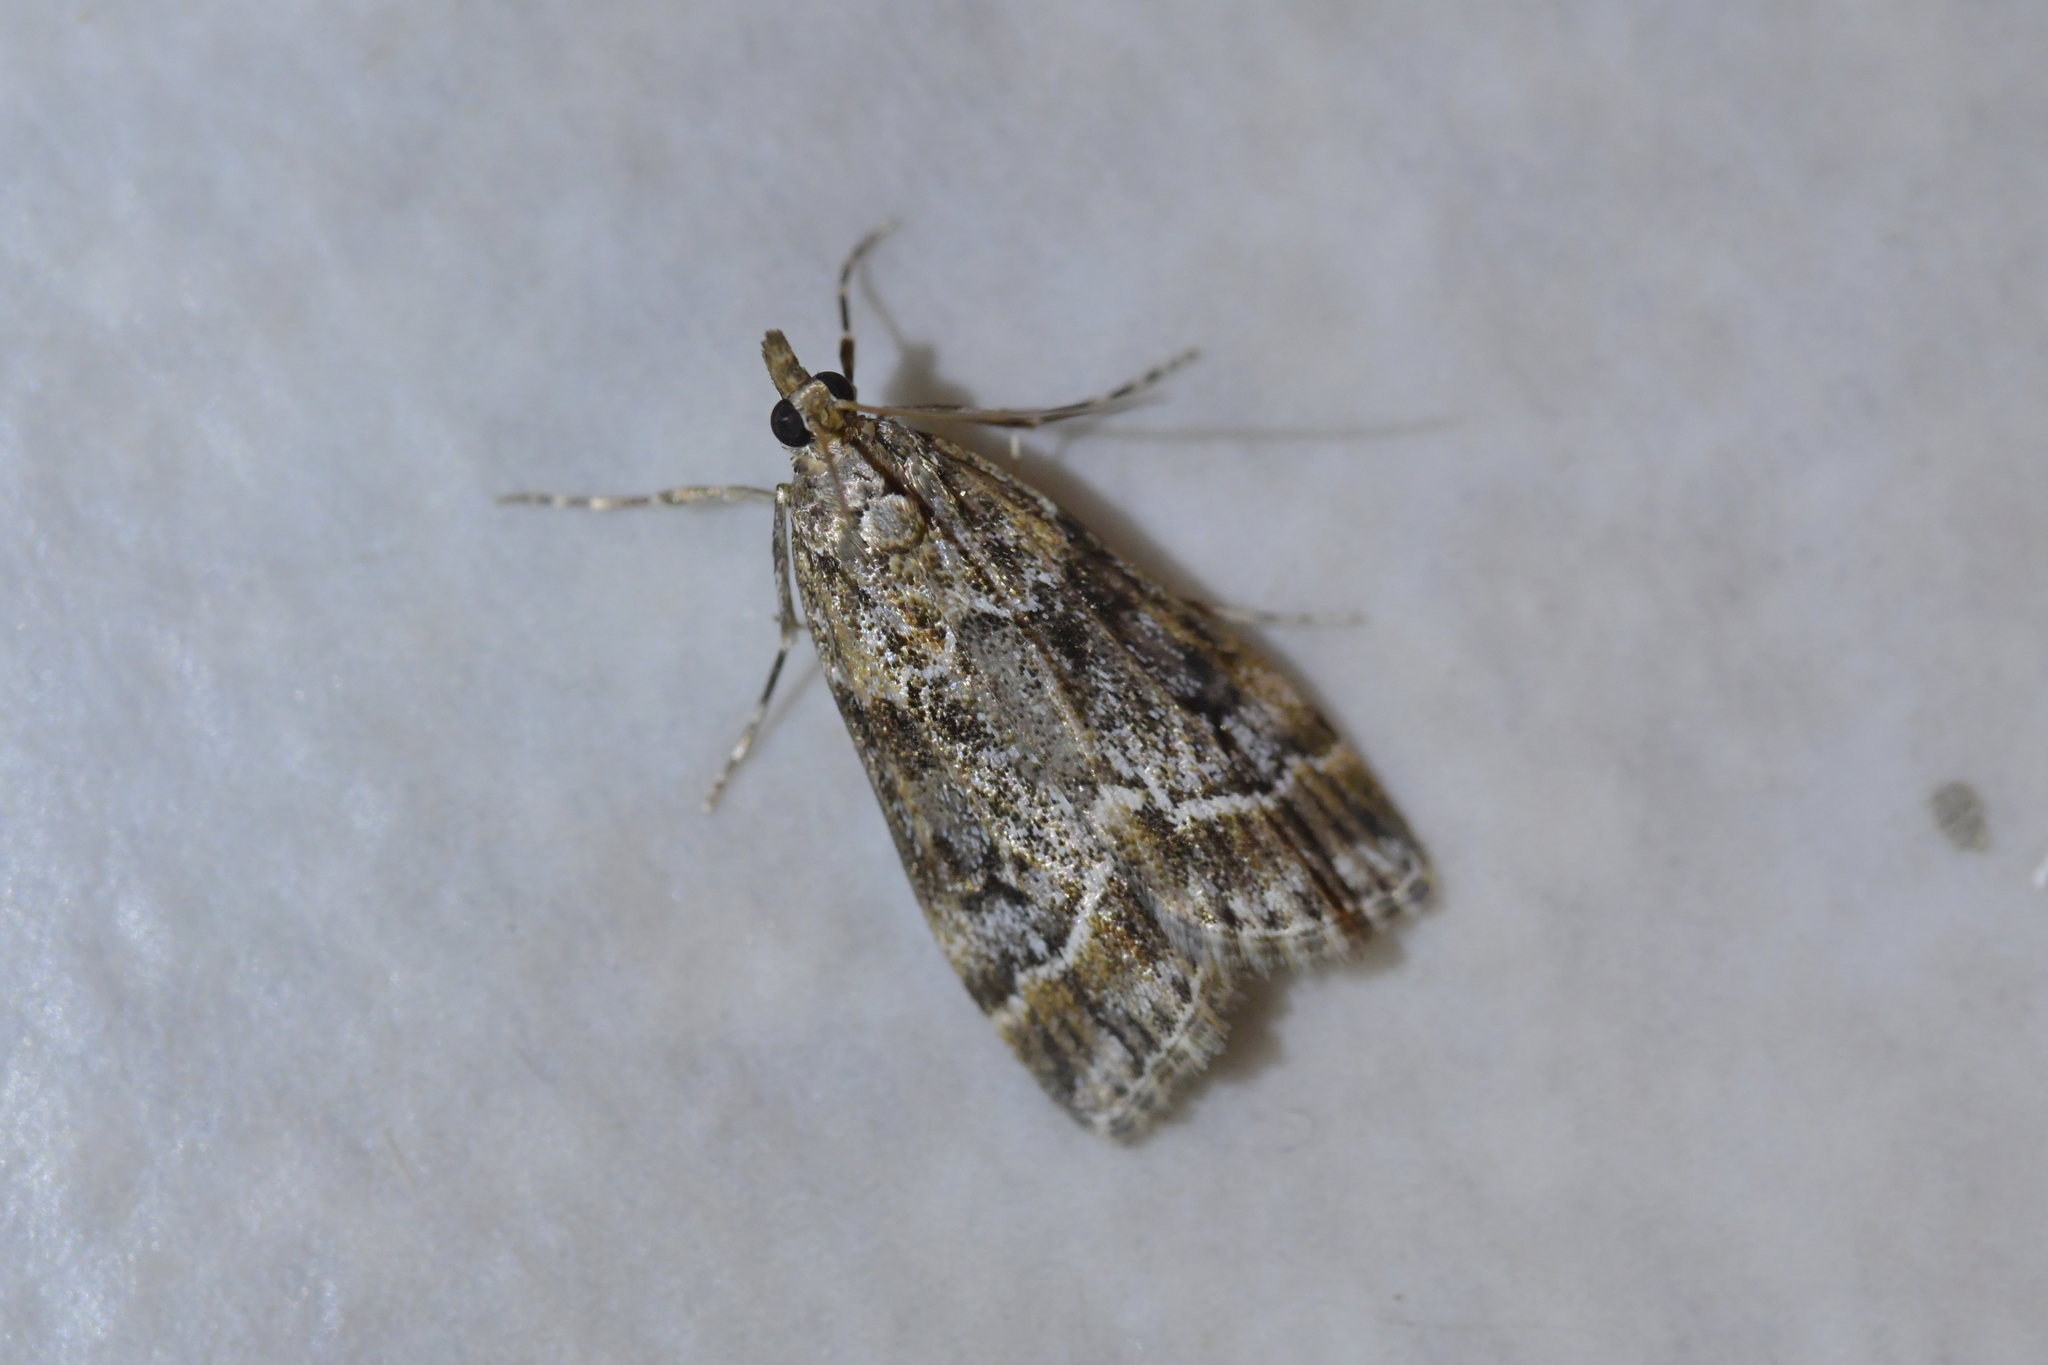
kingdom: Animalia
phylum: Arthropoda
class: Insecta
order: Lepidoptera
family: Crambidae
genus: Eudonia
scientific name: Eudonia legnota
